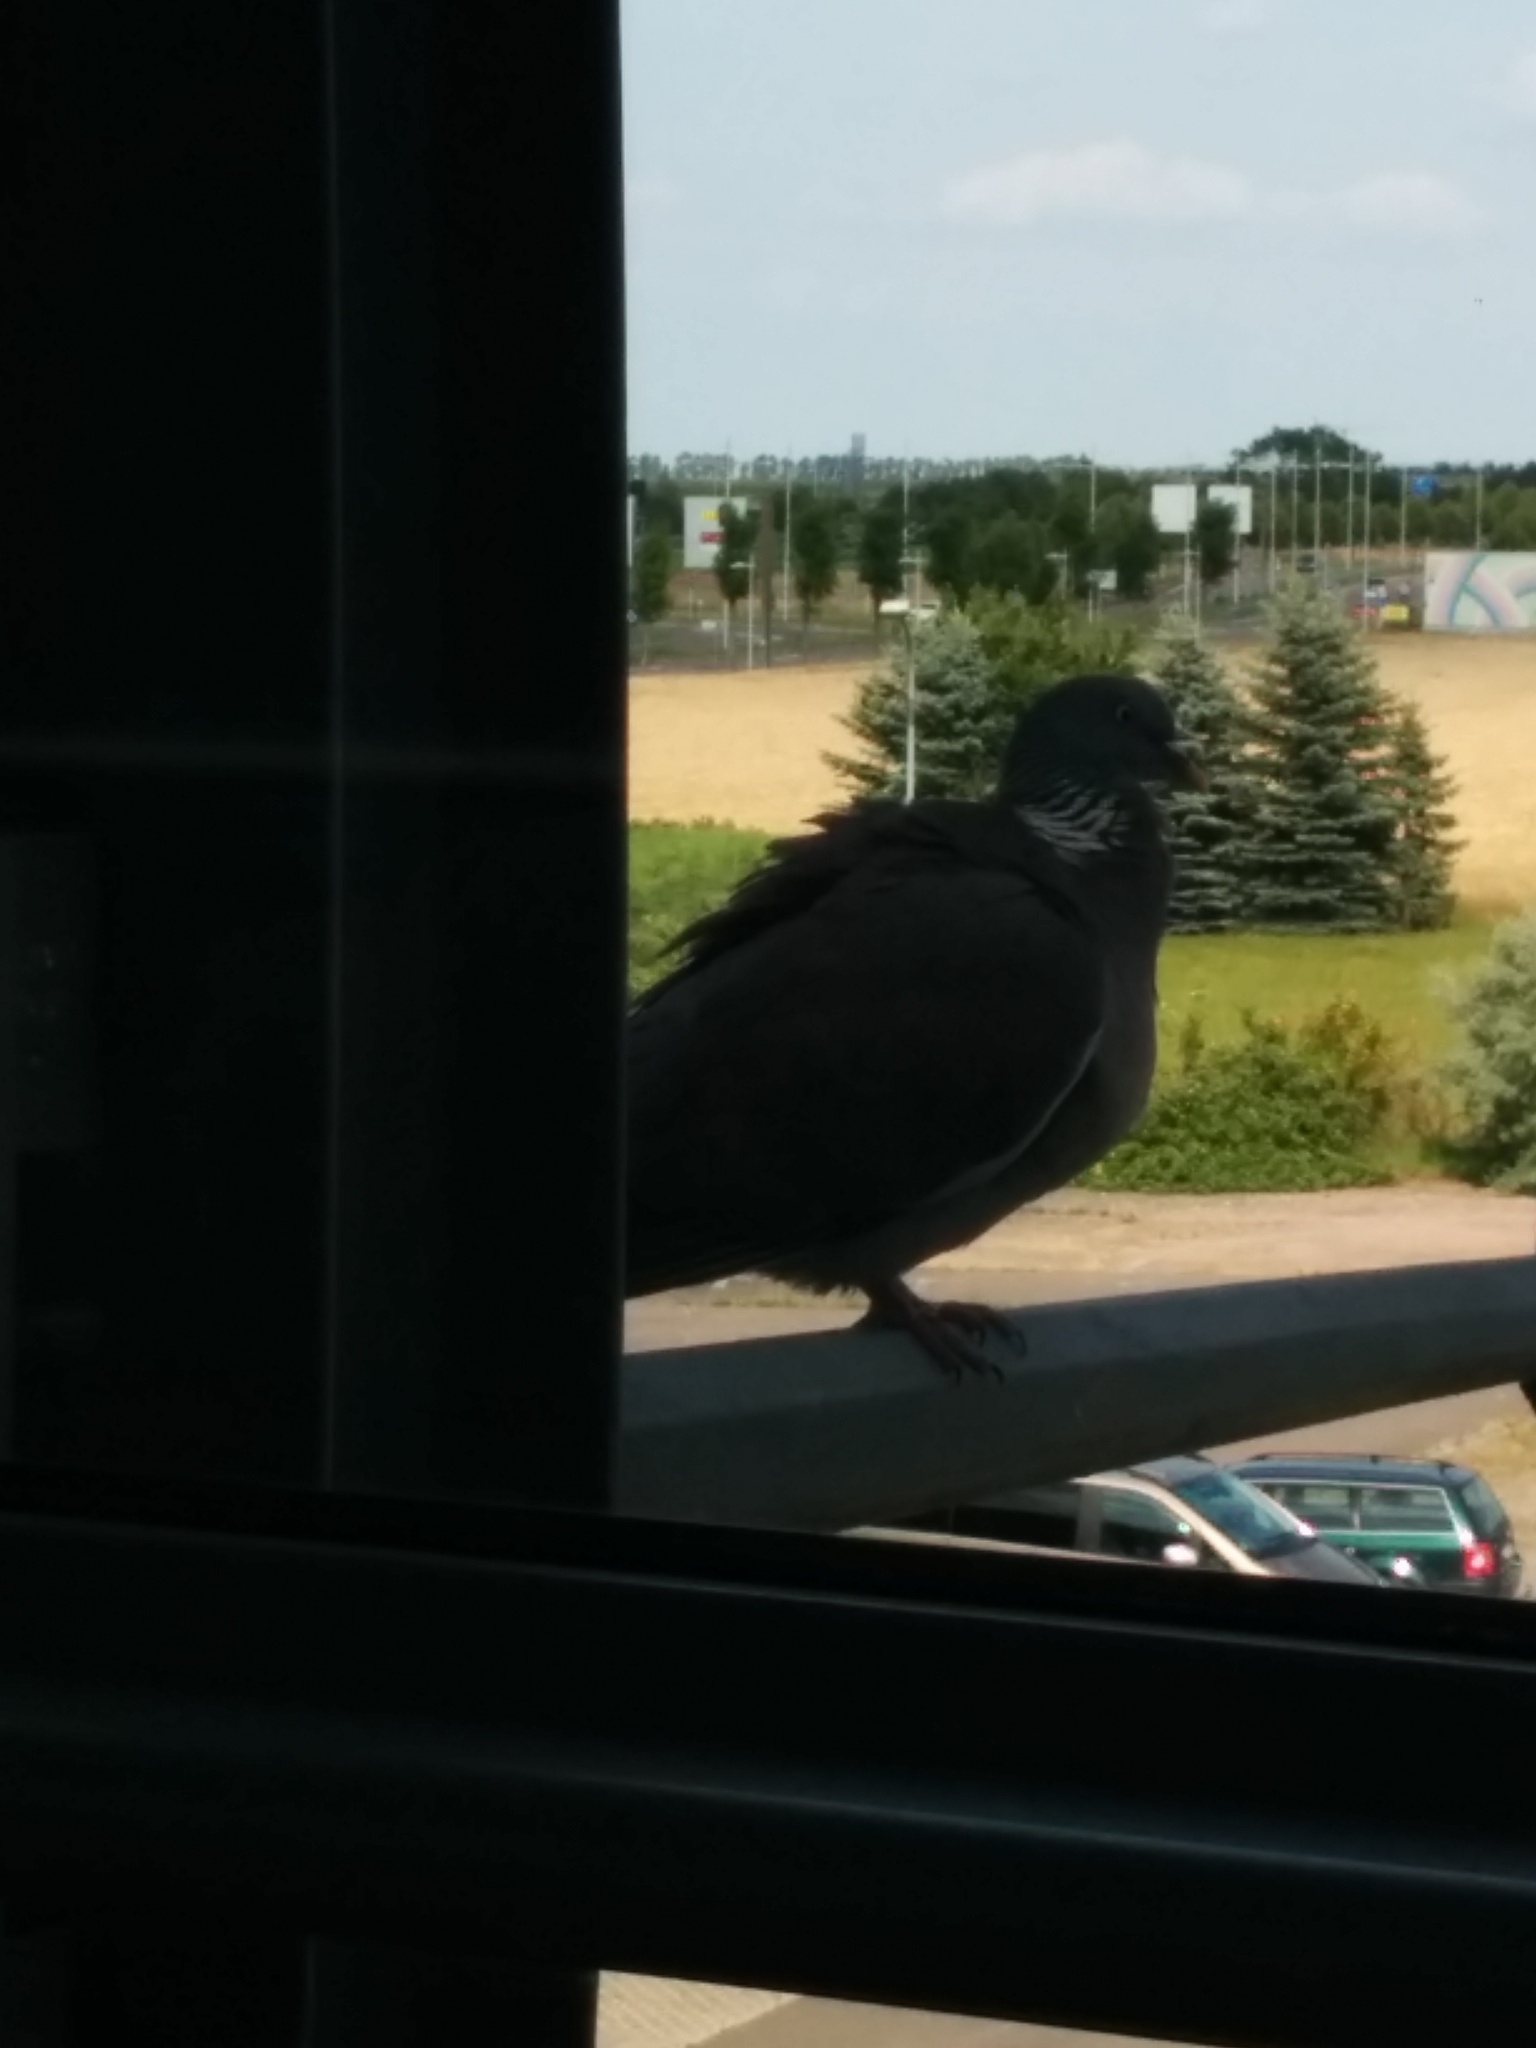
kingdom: Animalia
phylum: Chordata
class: Aves
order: Columbiformes
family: Columbidae
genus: Columba
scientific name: Columba palumbus
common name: Common wood pigeon
